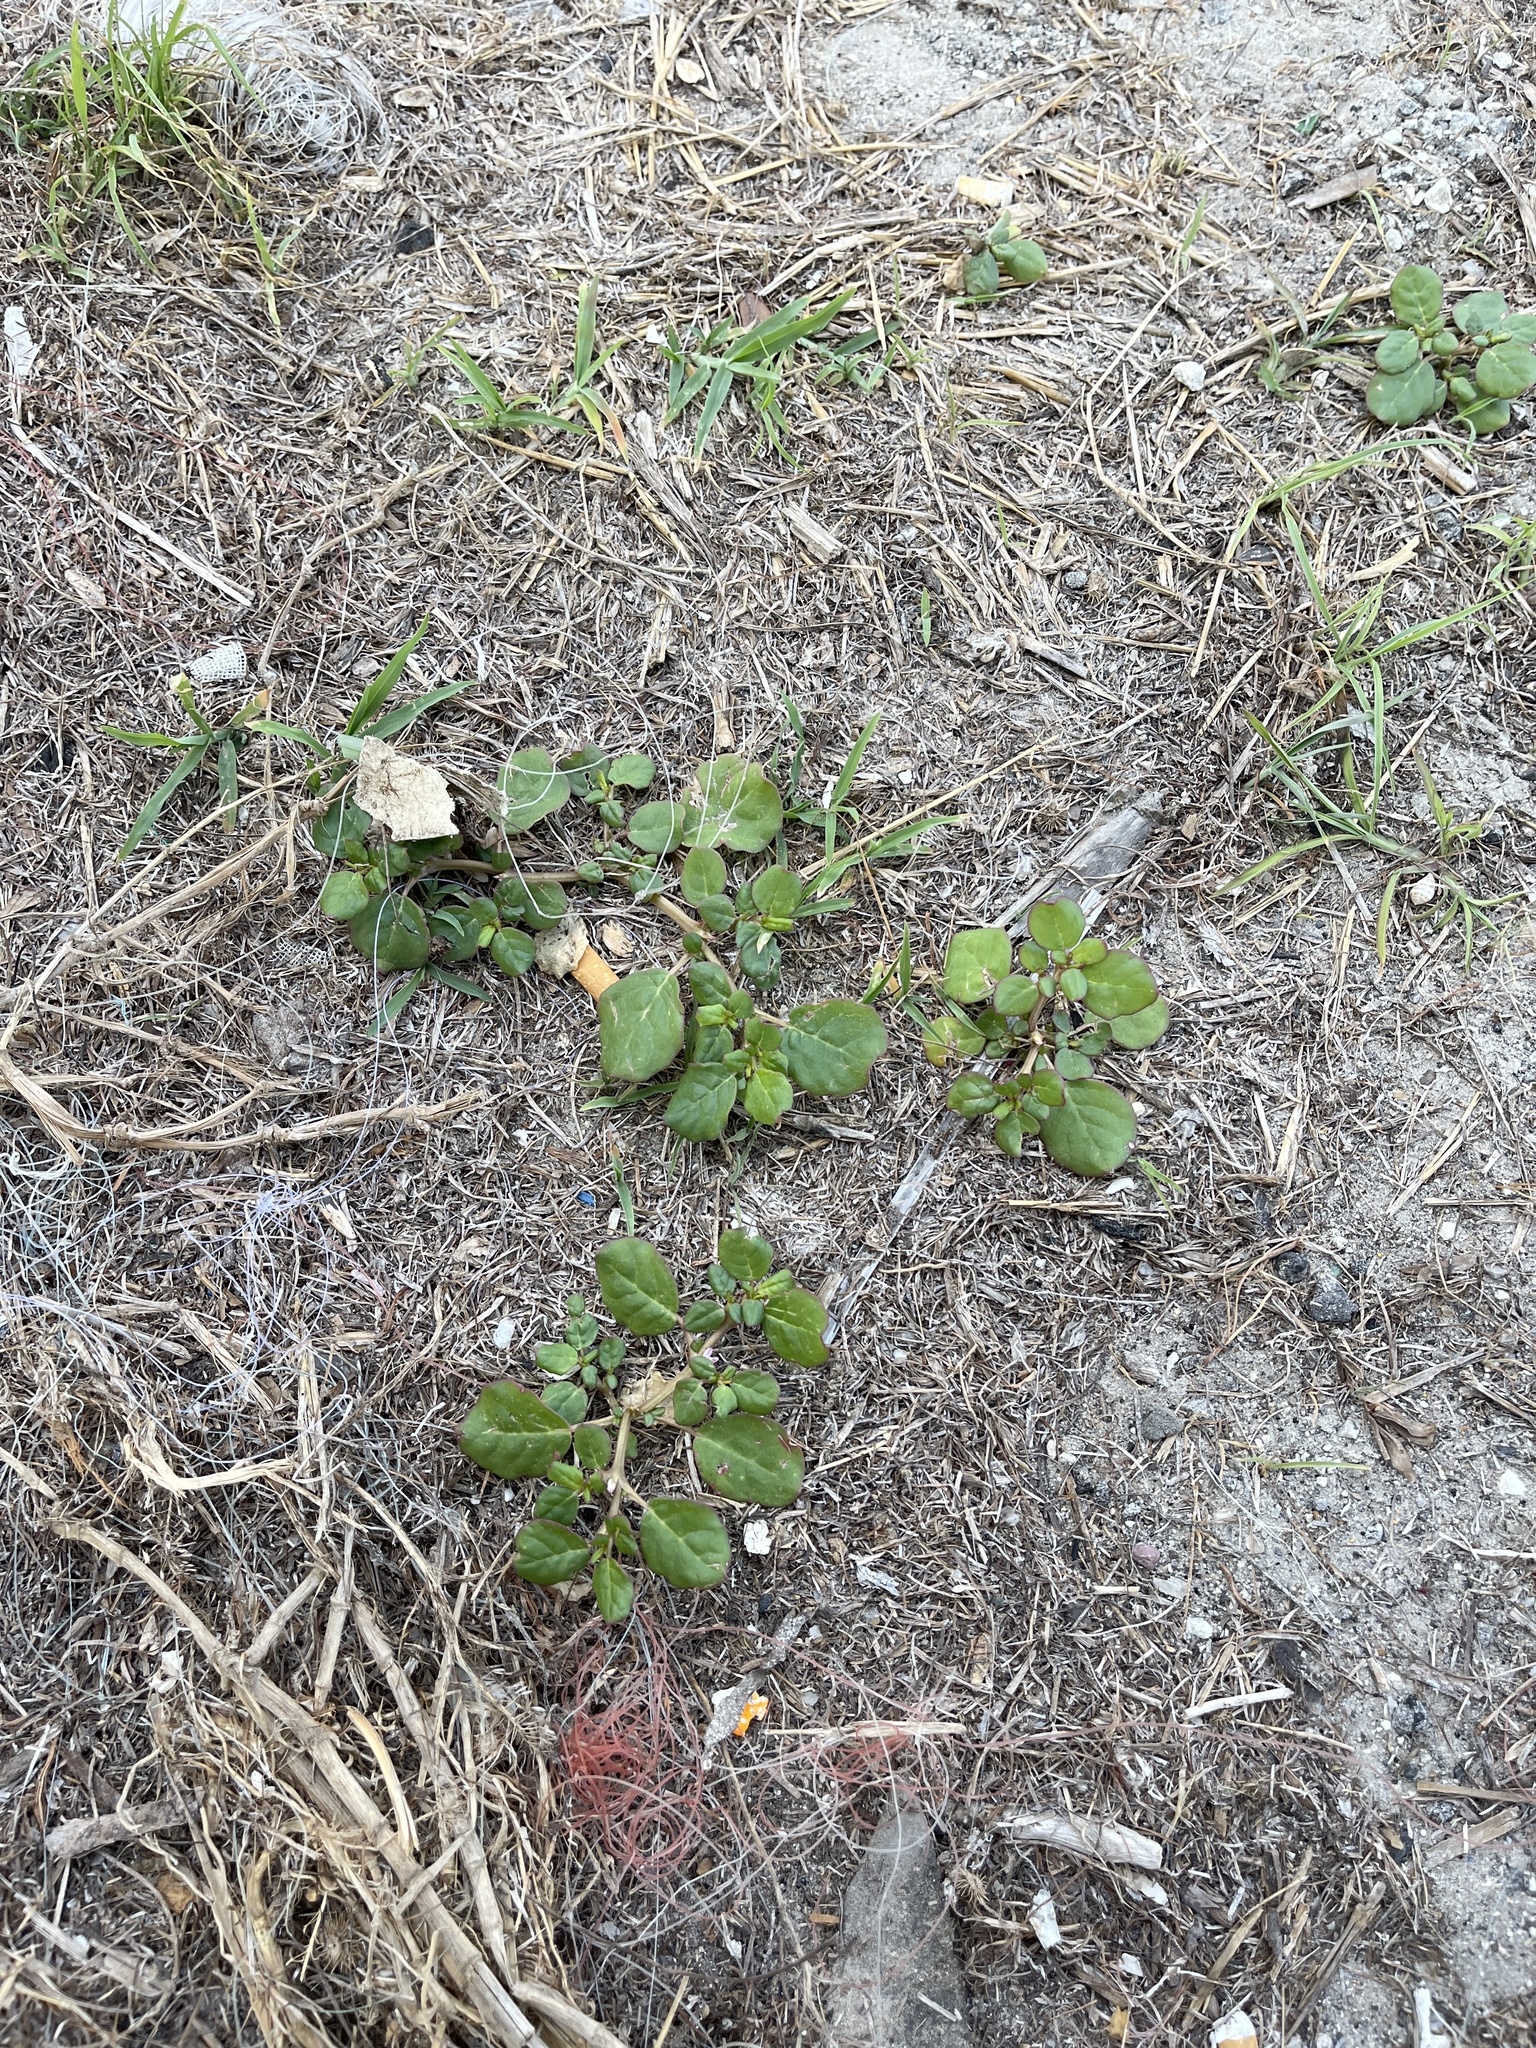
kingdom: Plantae
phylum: Tracheophyta
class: Magnoliopsida
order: Caryophyllales
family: Aizoaceae
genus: Trianthema
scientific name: Trianthema portulacastrum
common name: Desert horsepurslane
